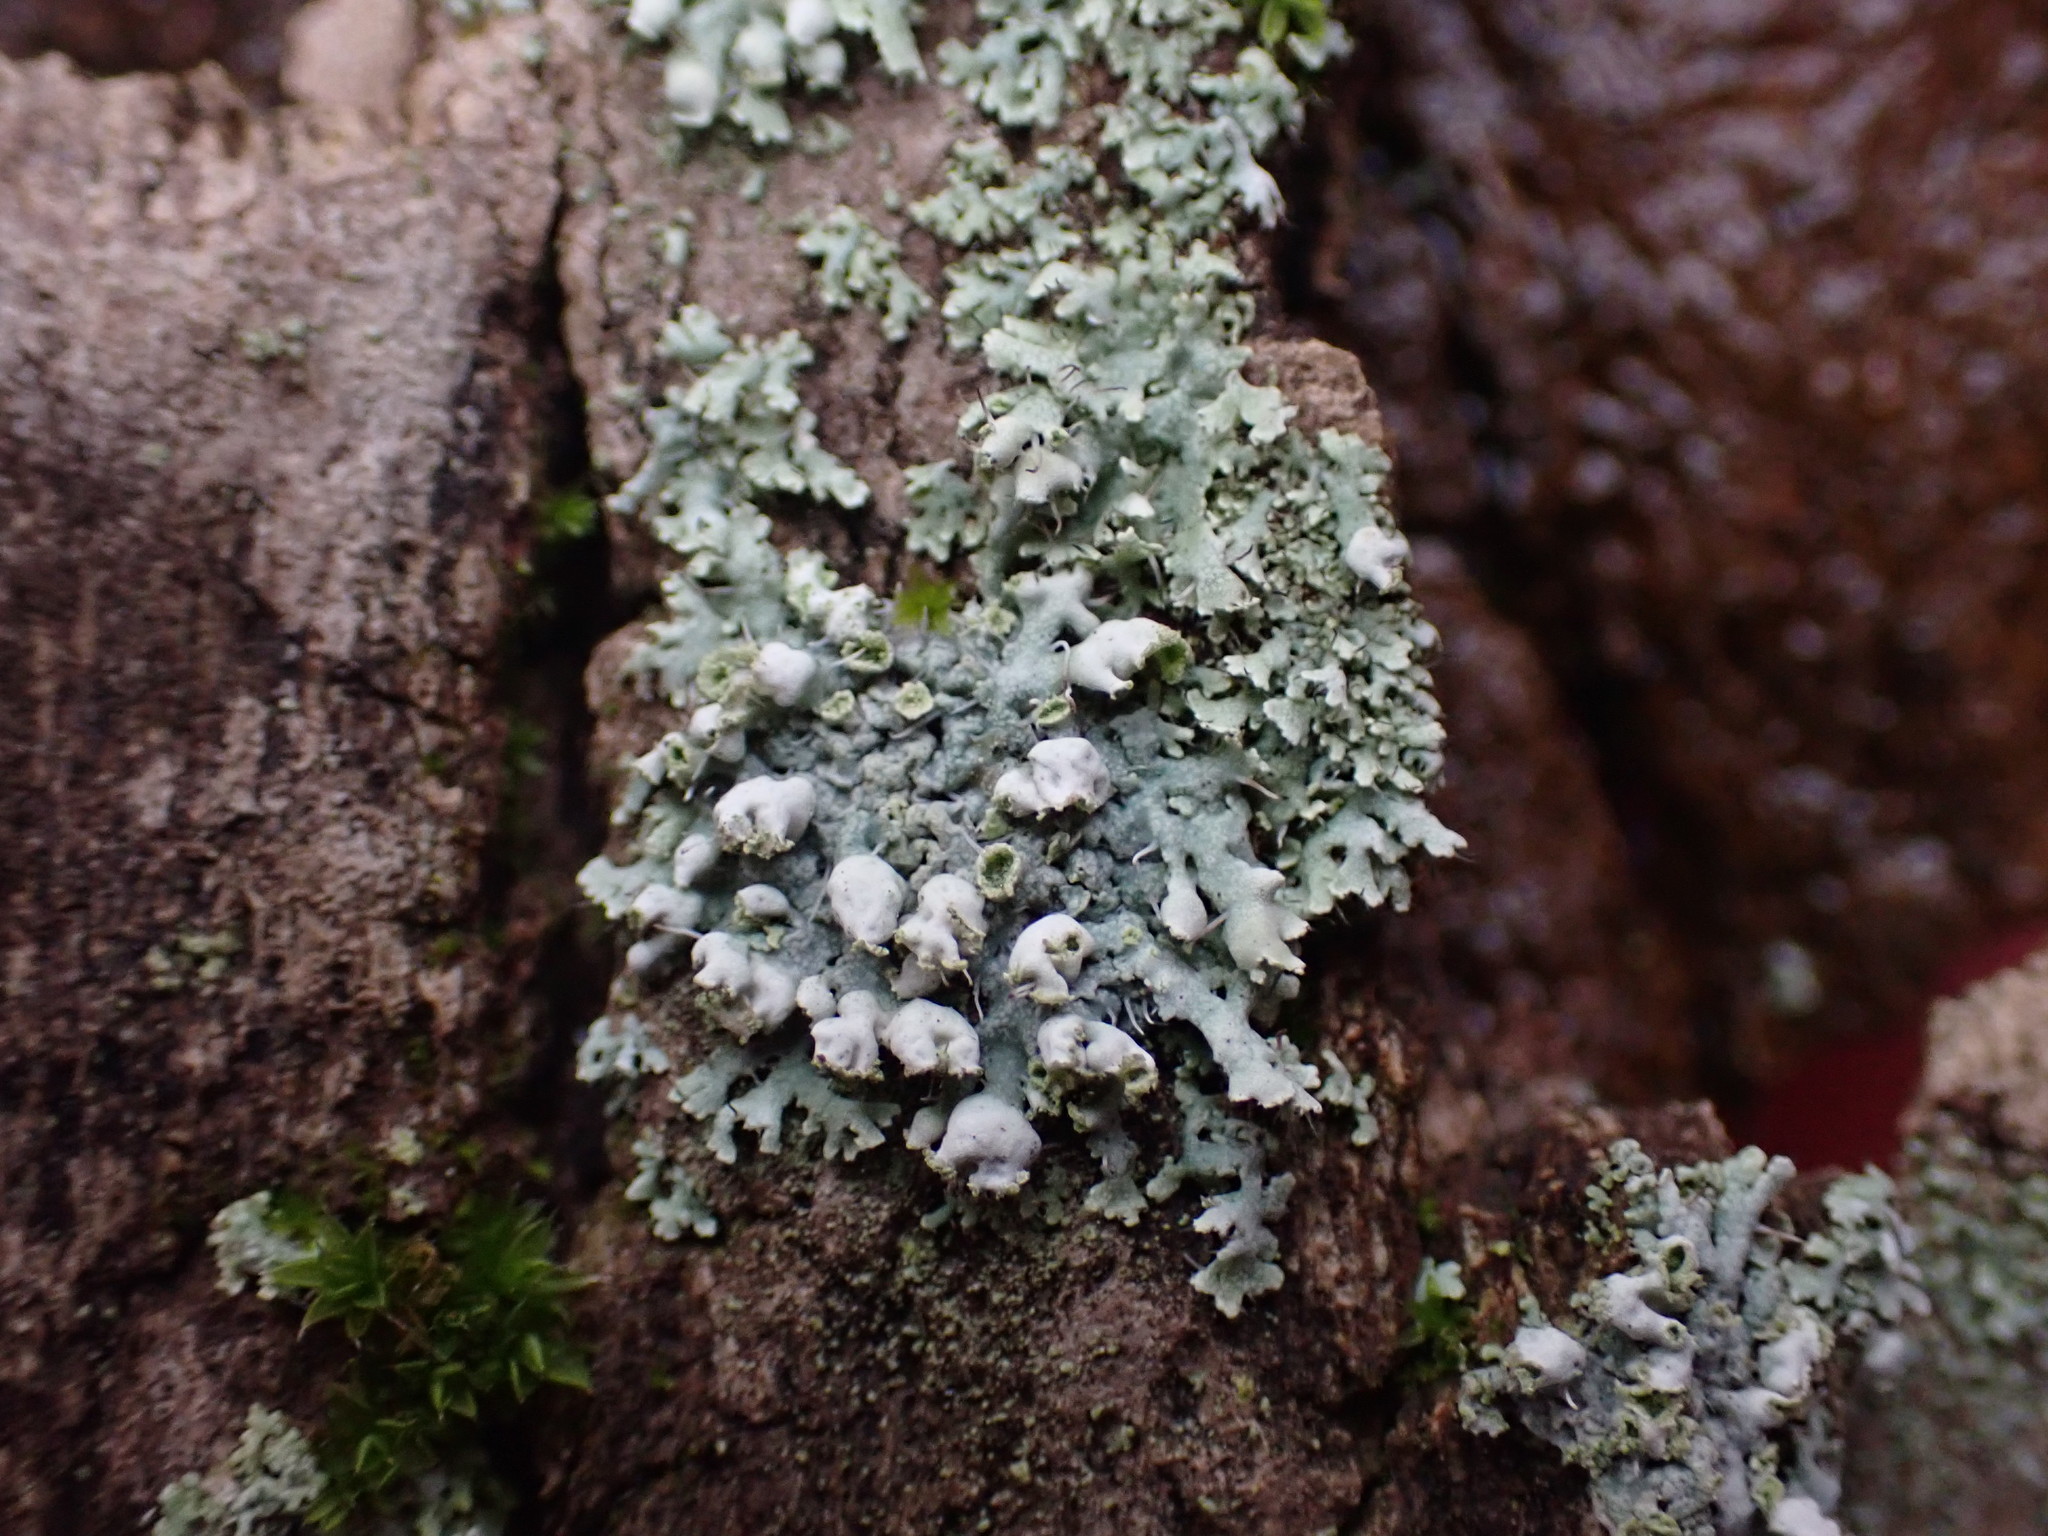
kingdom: Fungi
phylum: Ascomycota
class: Lecanoromycetes
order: Caliciales
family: Physciaceae
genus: Physcia
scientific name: Physcia adscendens
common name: Hooded rosette lichen
